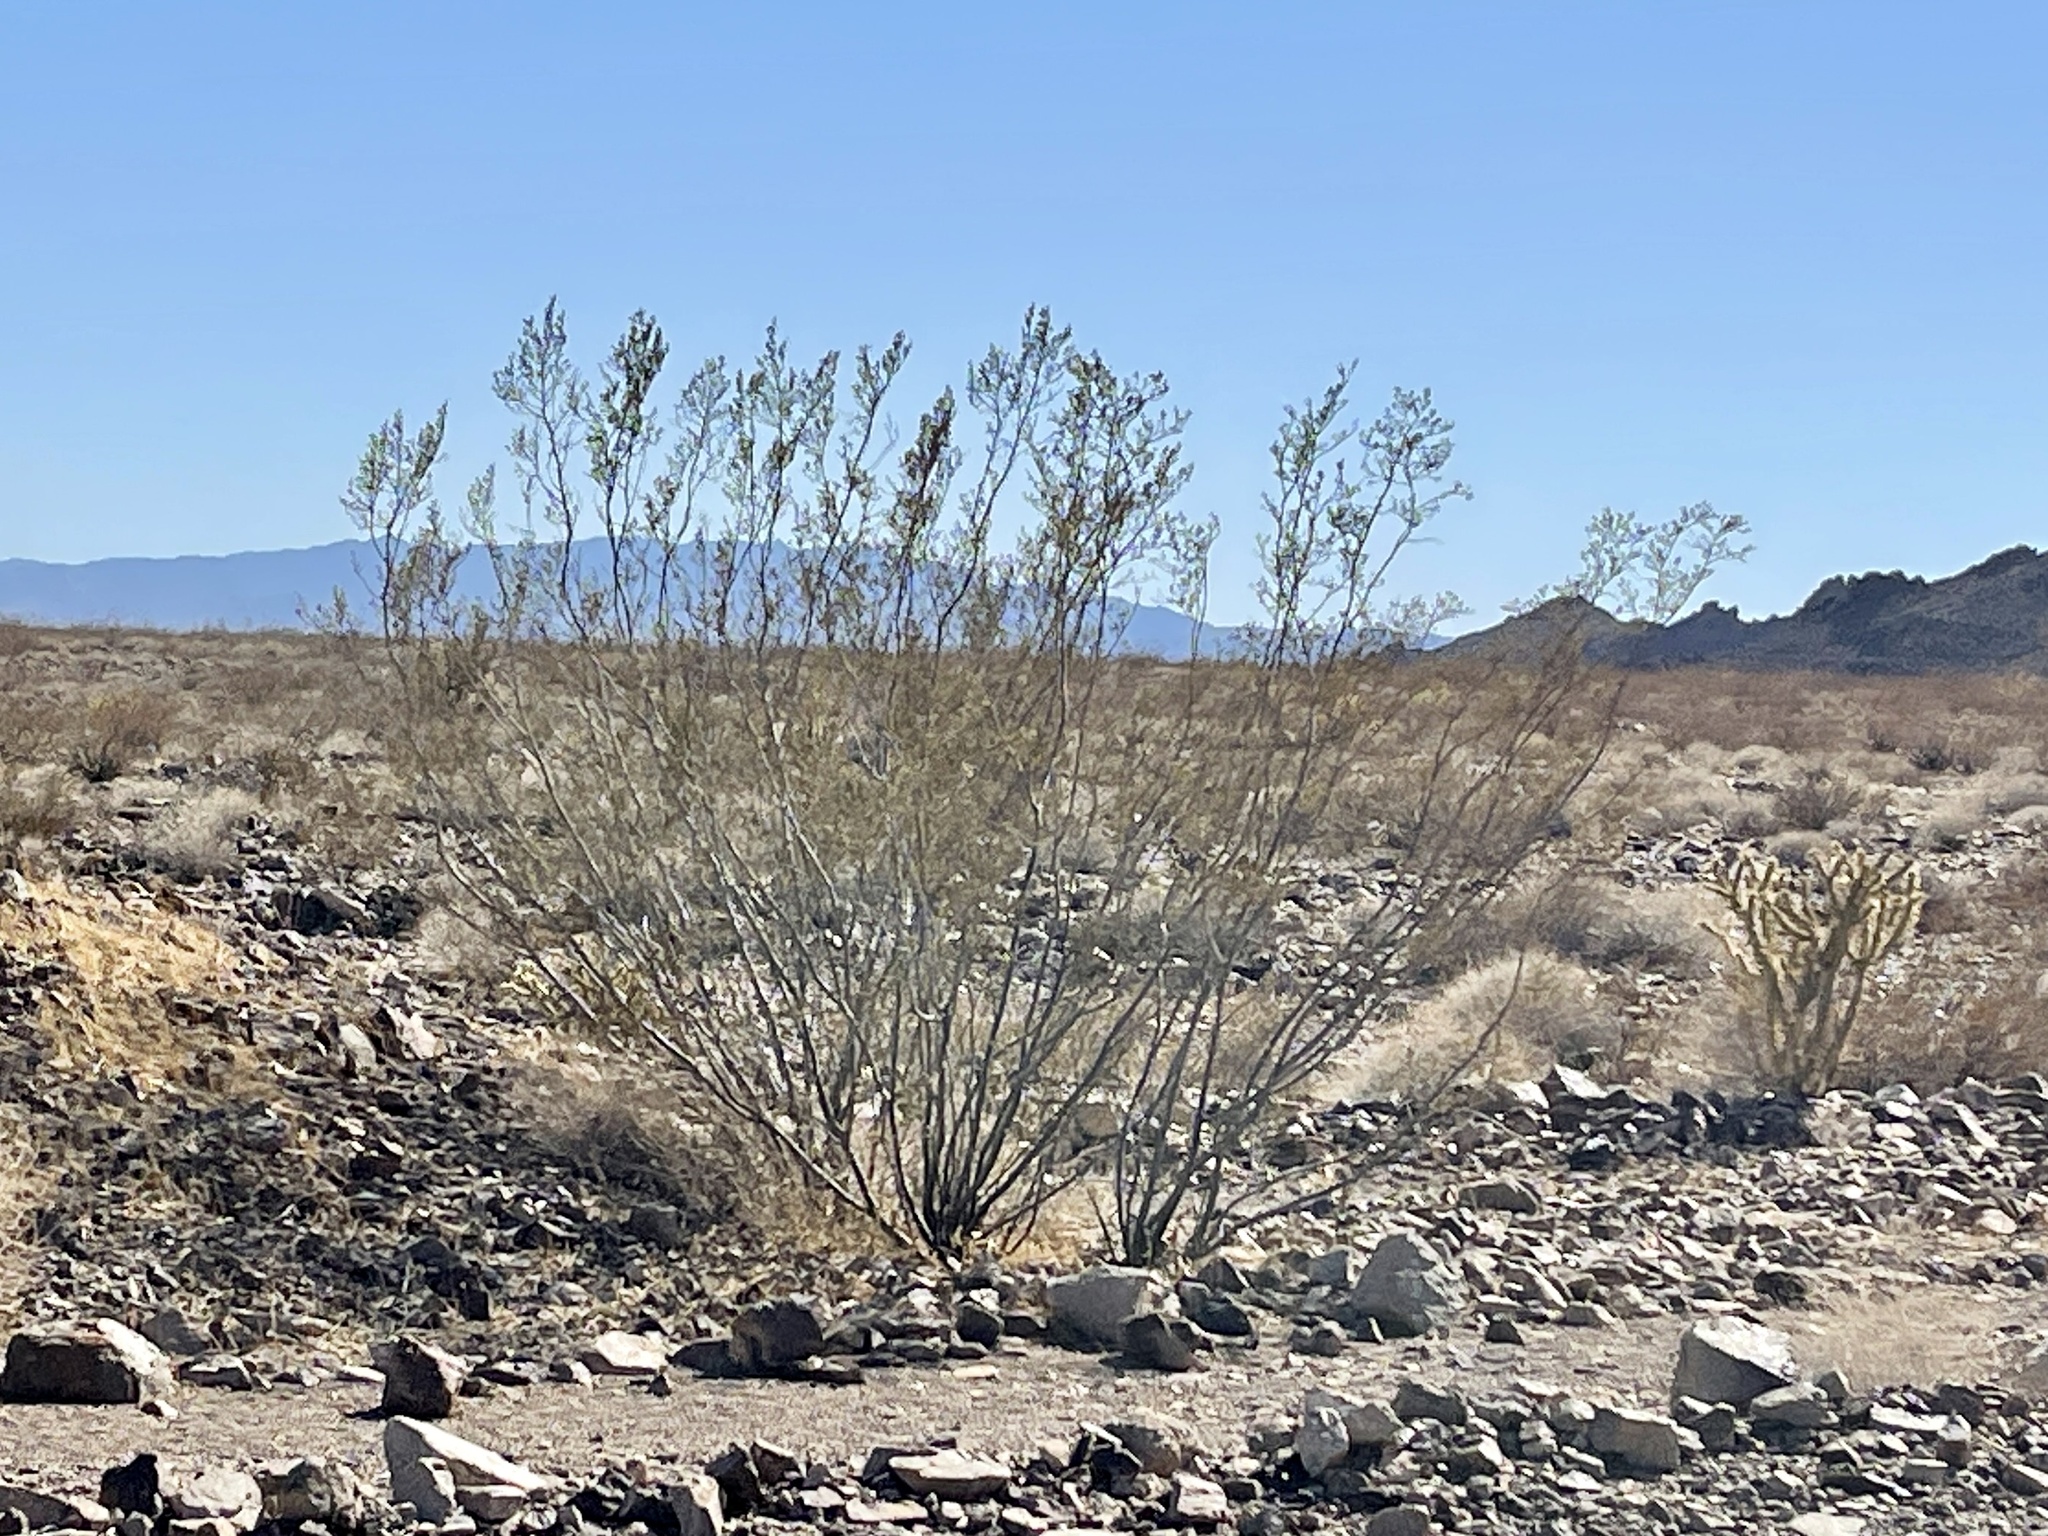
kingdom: Plantae
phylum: Tracheophyta
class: Magnoliopsida
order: Zygophyllales
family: Zygophyllaceae
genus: Larrea
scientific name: Larrea tridentata
